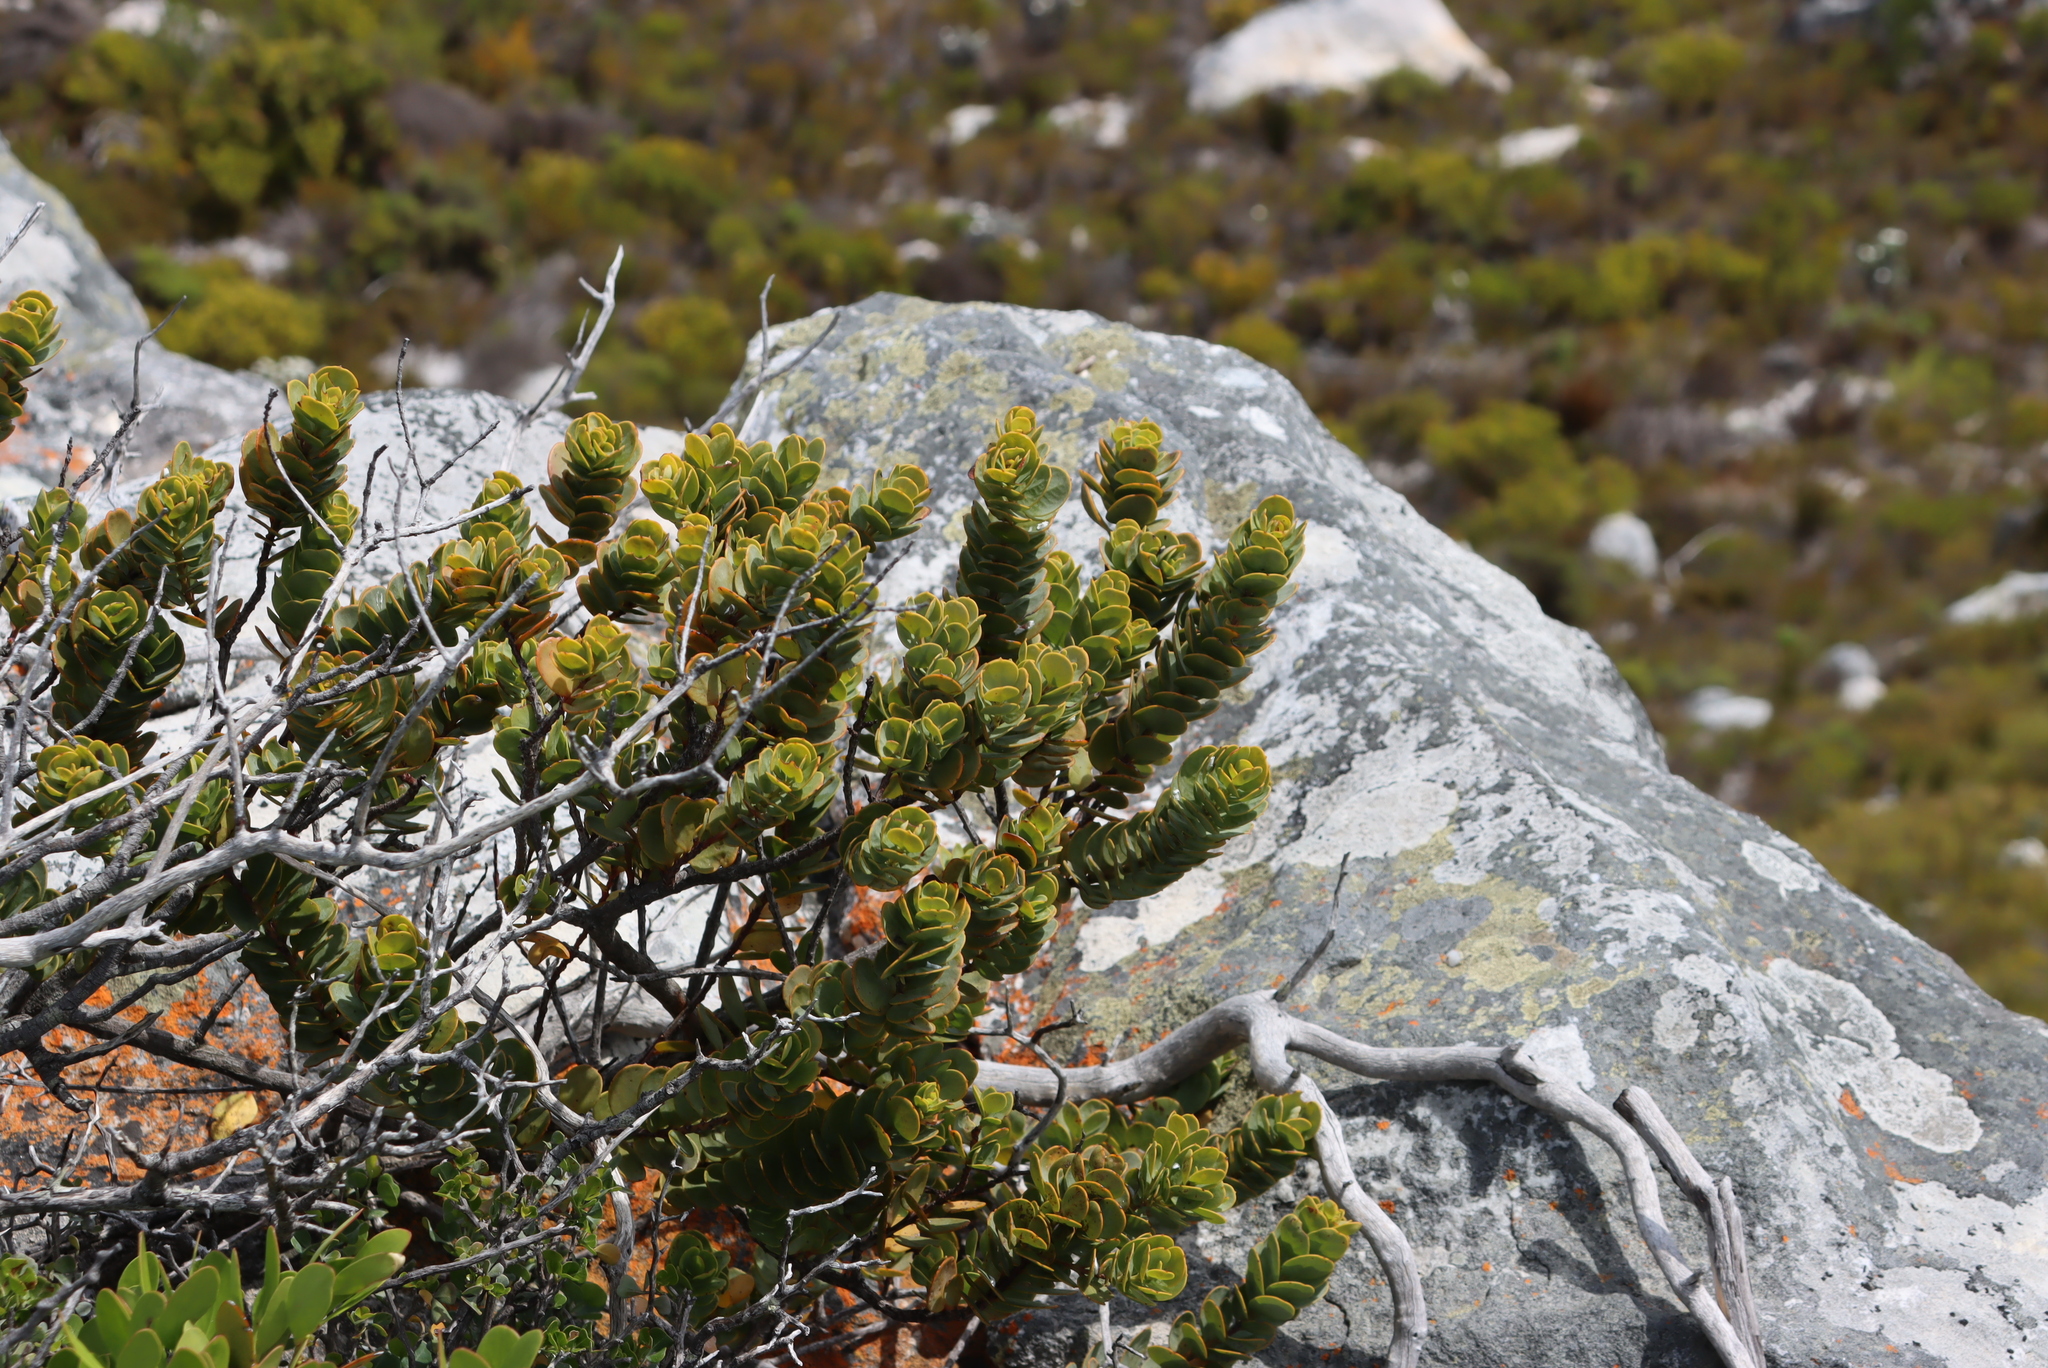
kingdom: Plantae
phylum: Tracheophyta
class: Magnoliopsida
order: Santalales
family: Santalaceae
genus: Osyris
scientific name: Osyris compressa
